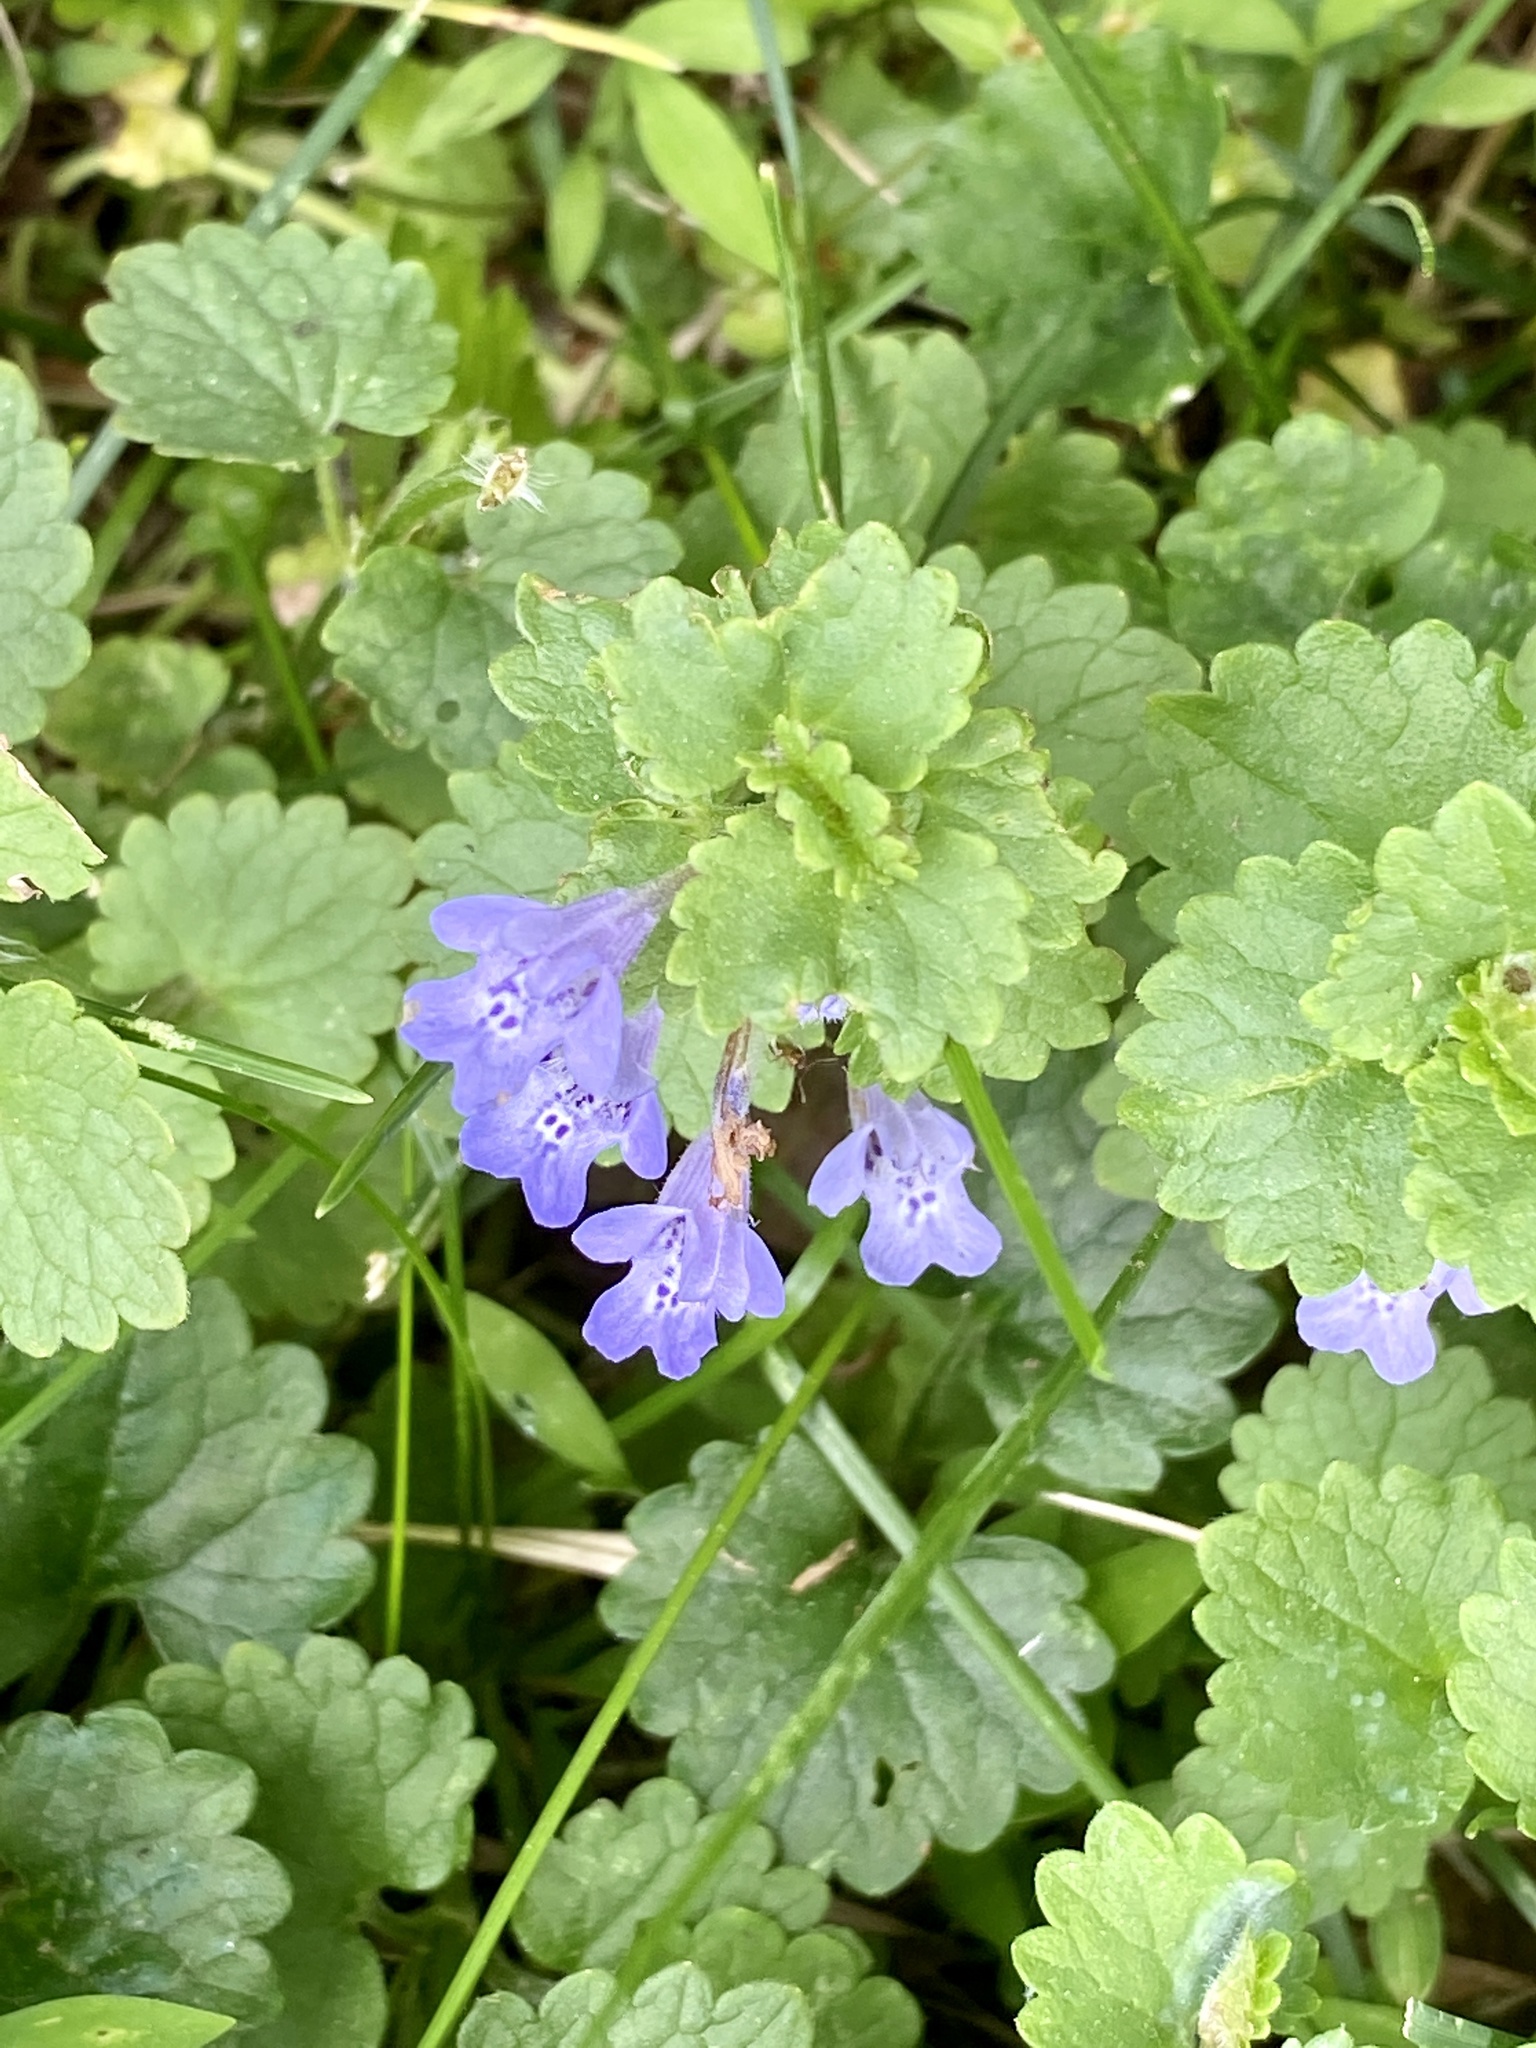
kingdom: Plantae
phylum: Tracheophyta
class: Magnoliopsida
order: Lamiales
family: Lamiaceae
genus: Glechoma
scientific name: Glechoma hederacea
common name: Ground ivy
